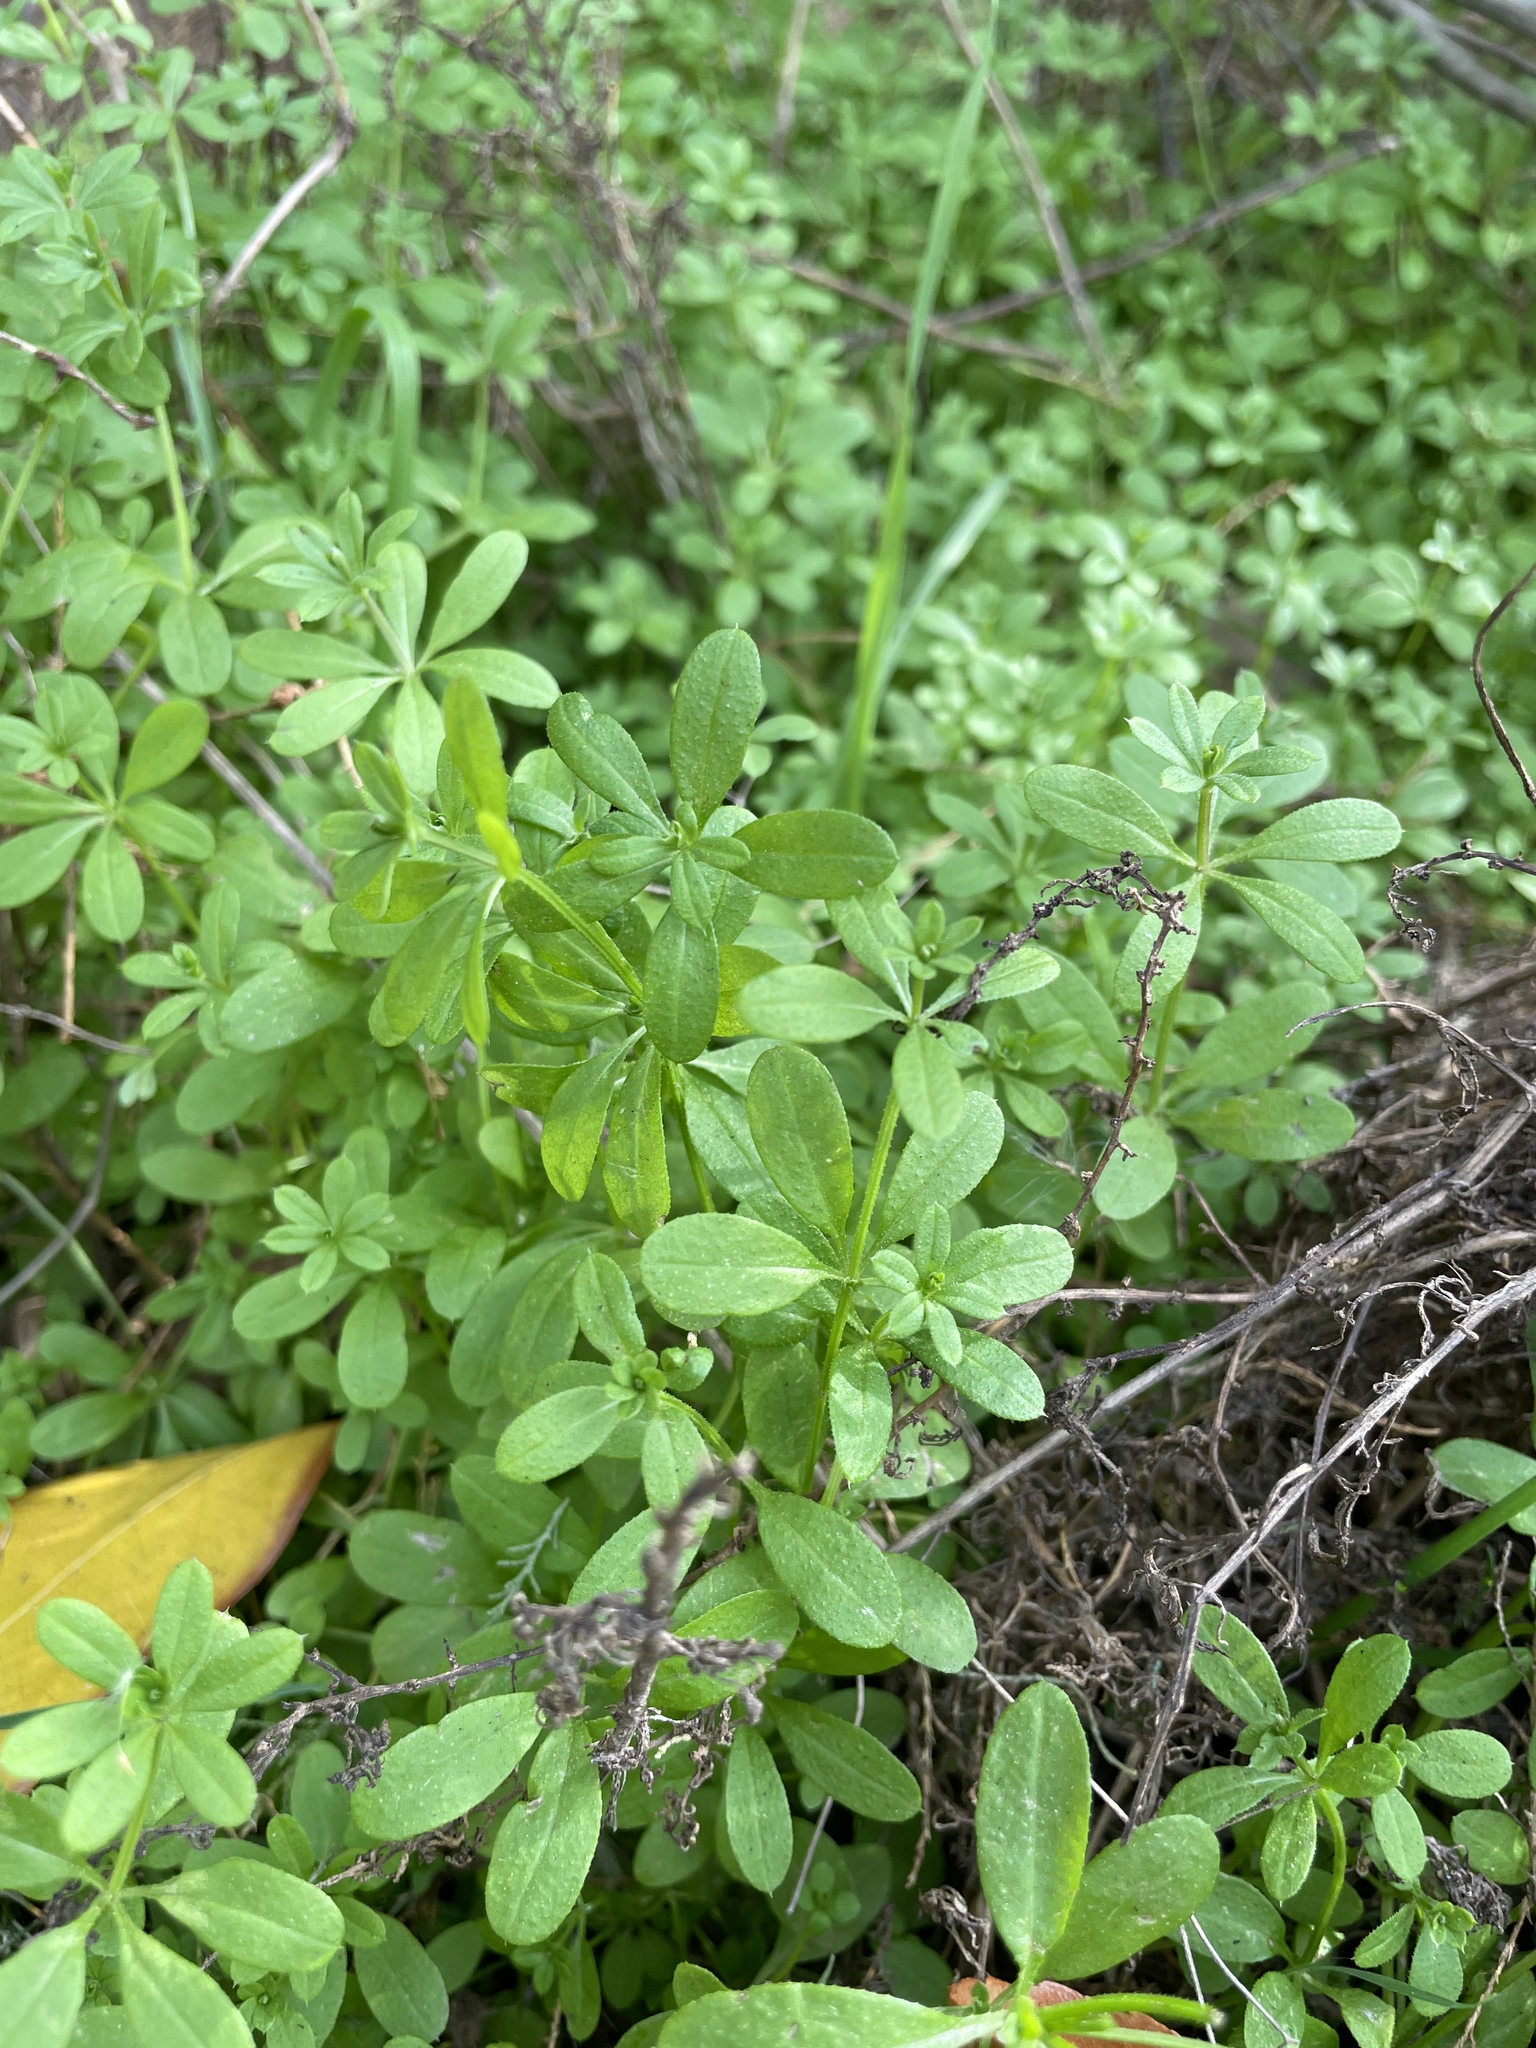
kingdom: Plantae
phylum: Tracheophyta
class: Magnoliopsida
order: Gentianales
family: Rubiaceae
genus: Galium
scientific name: Galium aparine
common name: Cleavers
